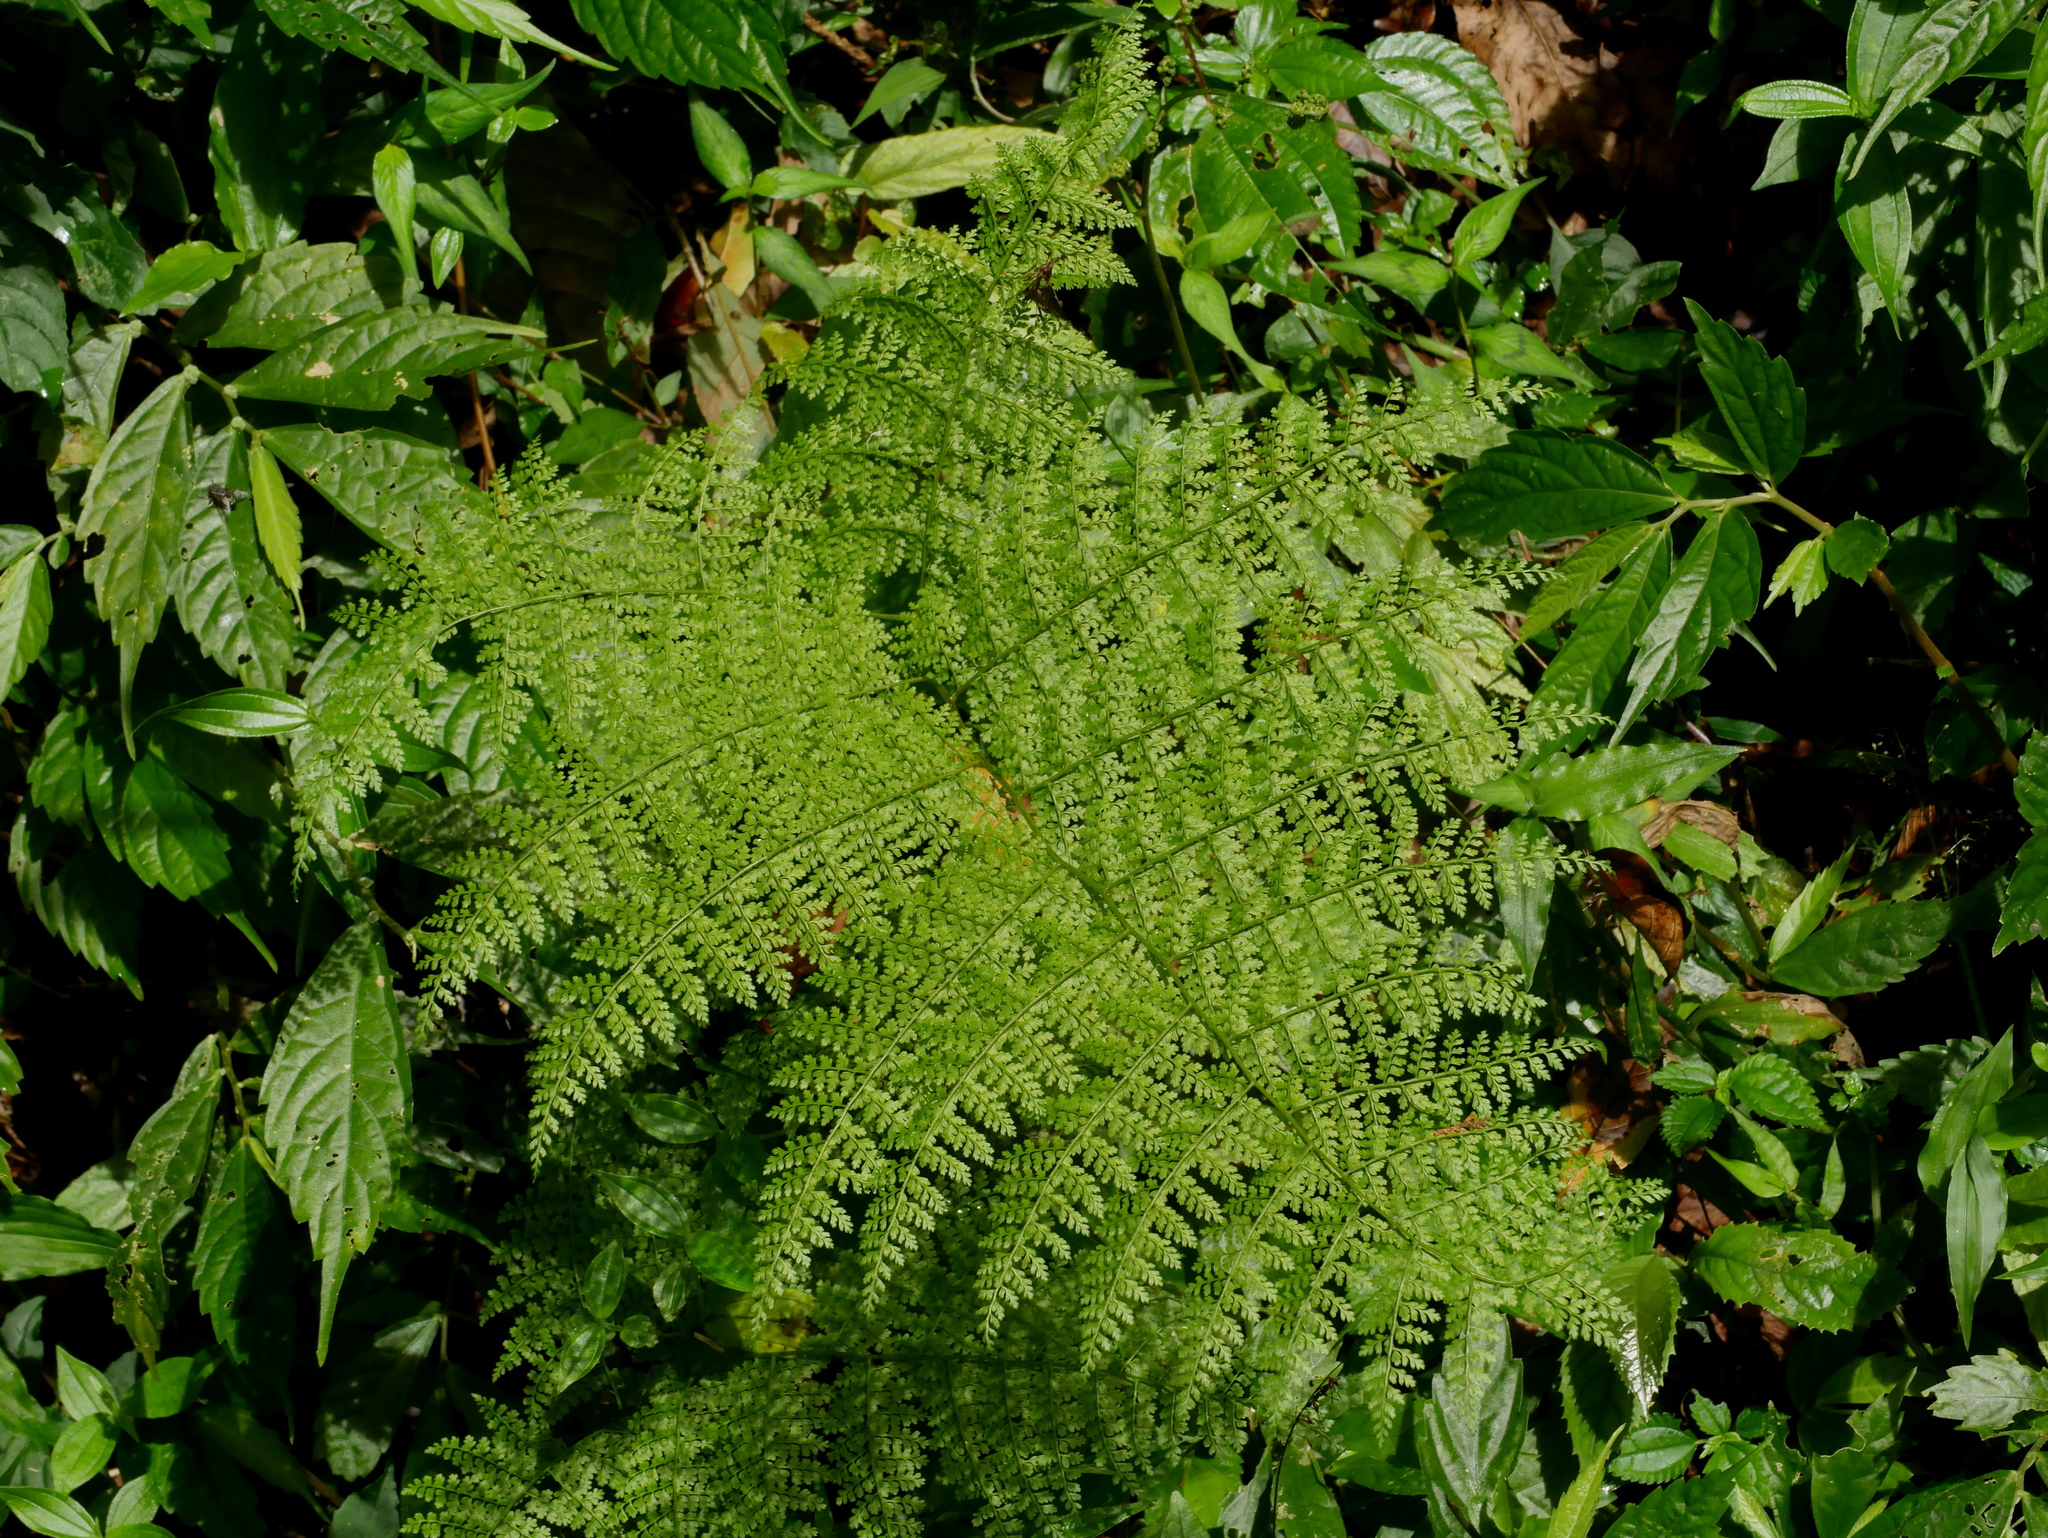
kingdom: Plantae
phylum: Tracheophyta
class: Polypodiopsida
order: Polypodiales
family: Dennstaedtiaceae
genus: Monachosorum
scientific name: Monachosorum henryi
